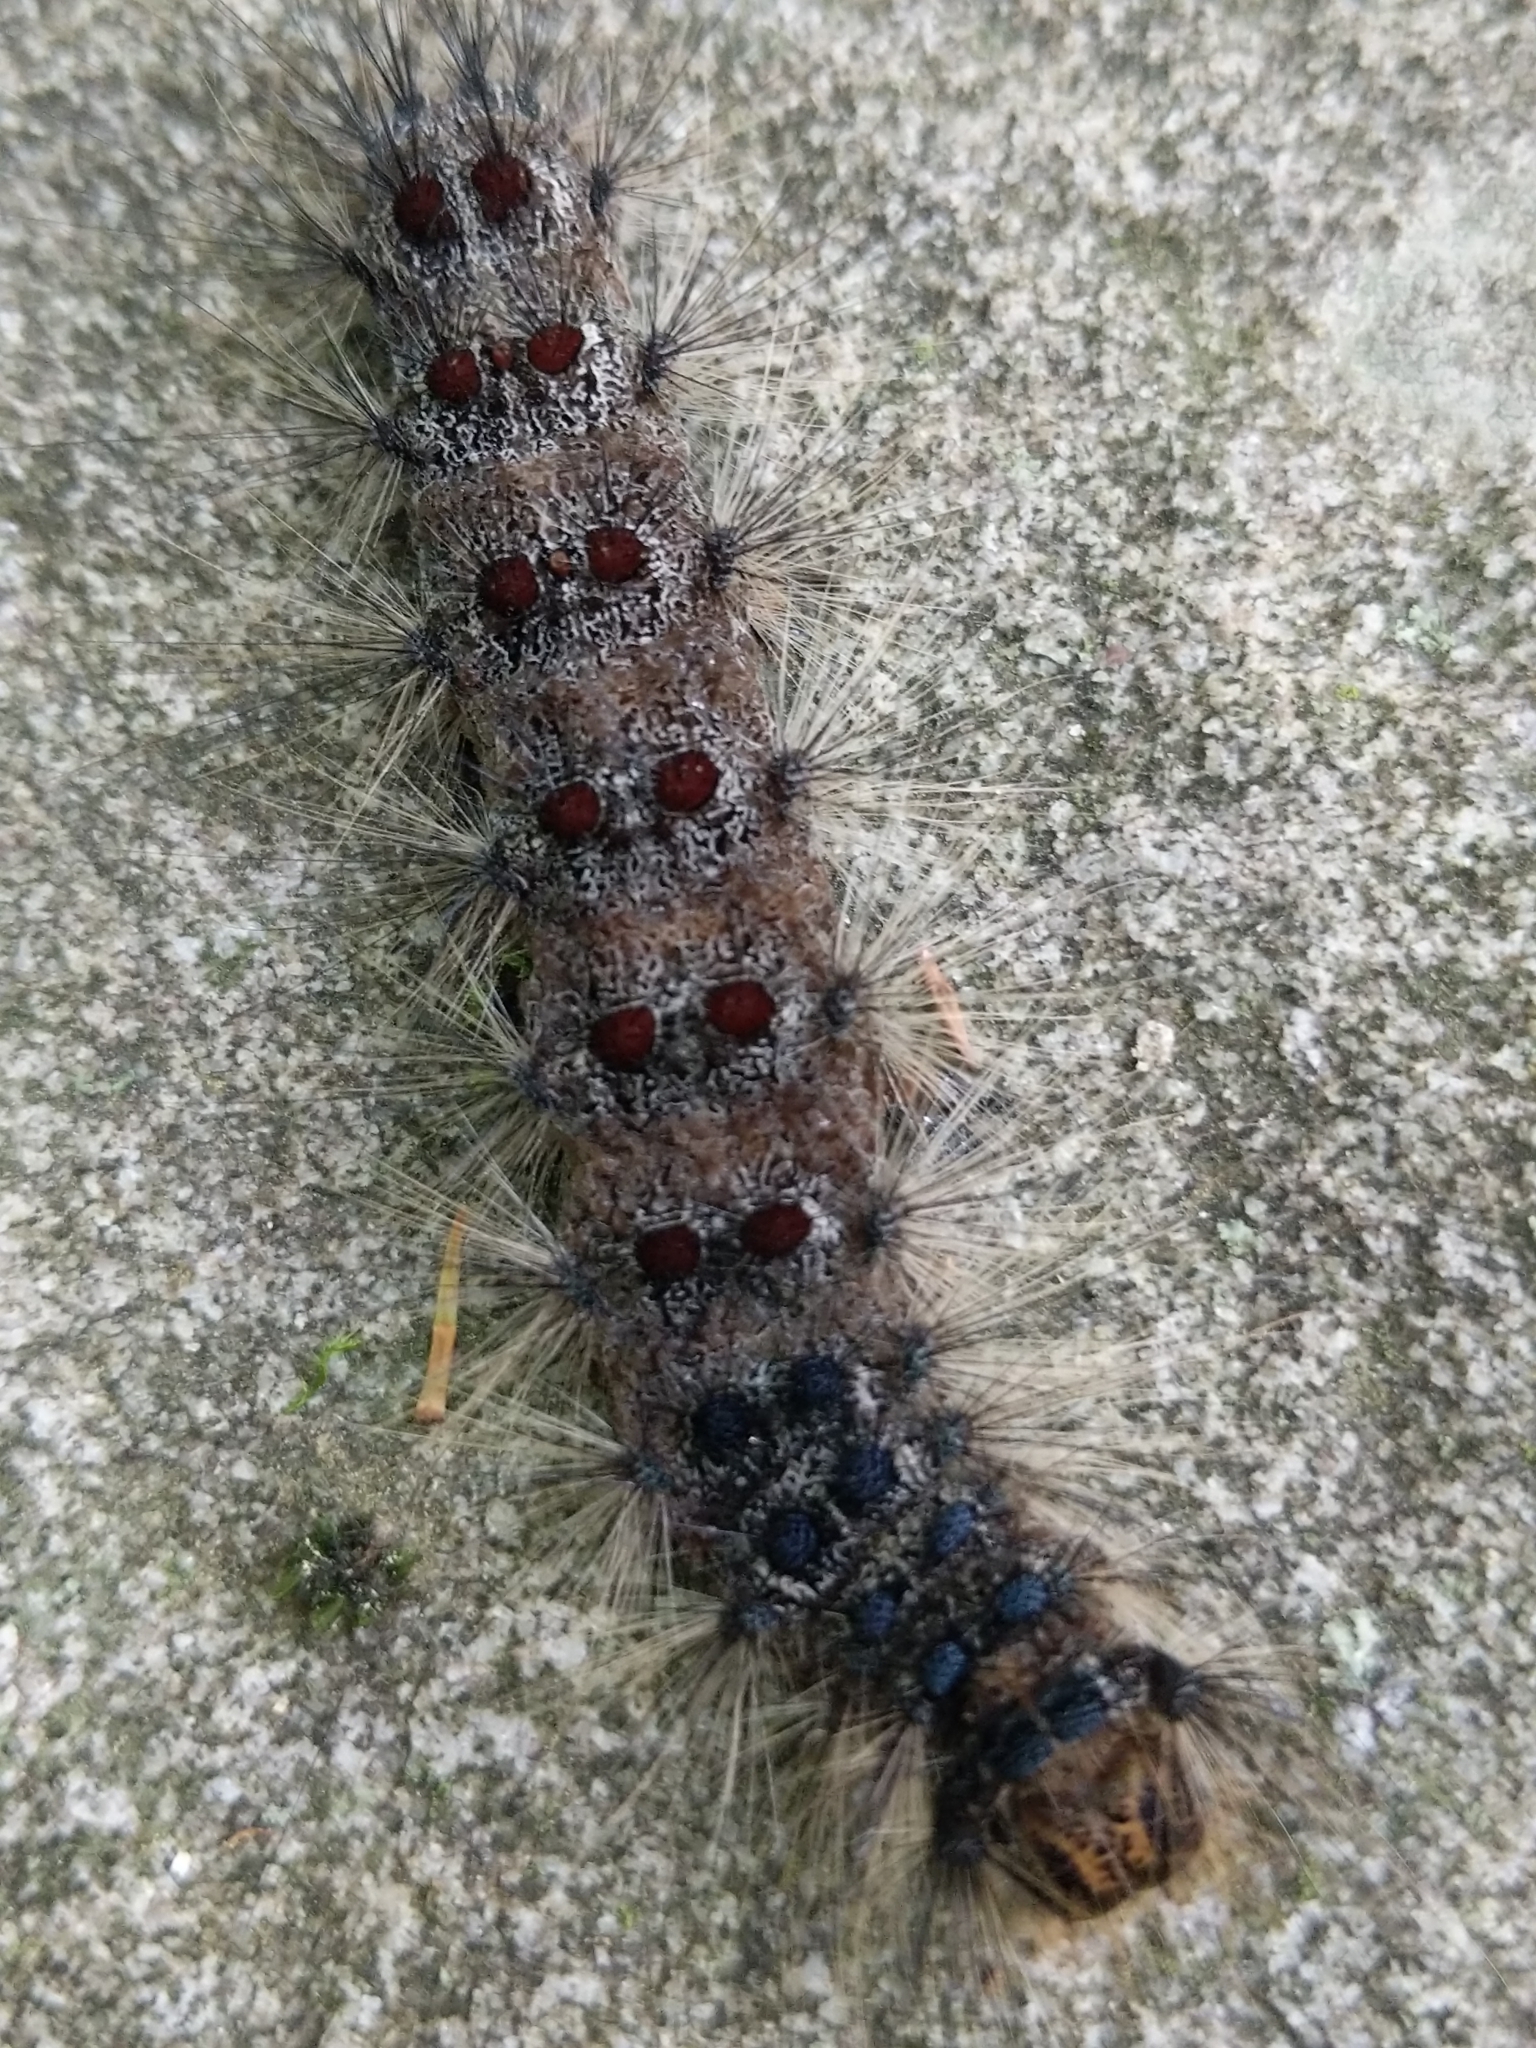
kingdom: Animalia
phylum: Arthropoda
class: Insecta
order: Lepidoptera
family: Erebidae
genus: Lymantria
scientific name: Lymantria dispar
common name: Gypsy moth
